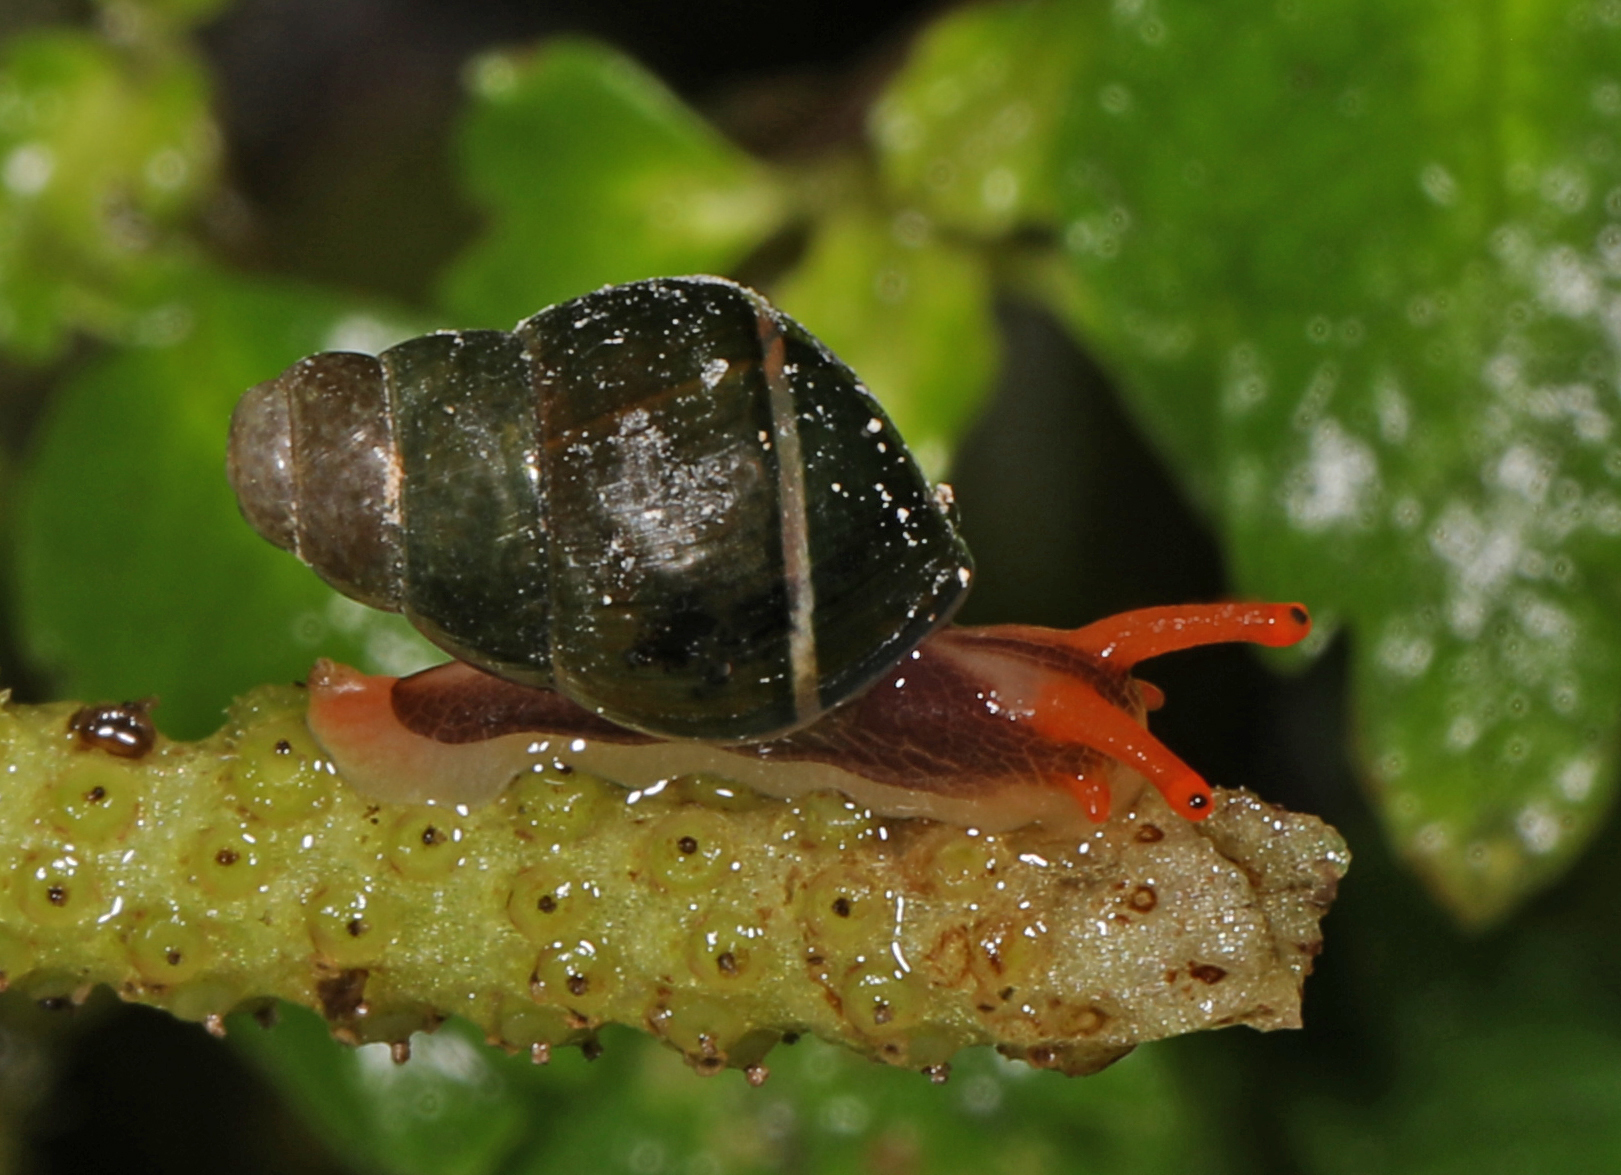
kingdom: Animalia
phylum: Mollusca
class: Gastropoda
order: Stylommatophora
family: Achatinidae
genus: Zoniferella
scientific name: Zoniferella albobalteata
